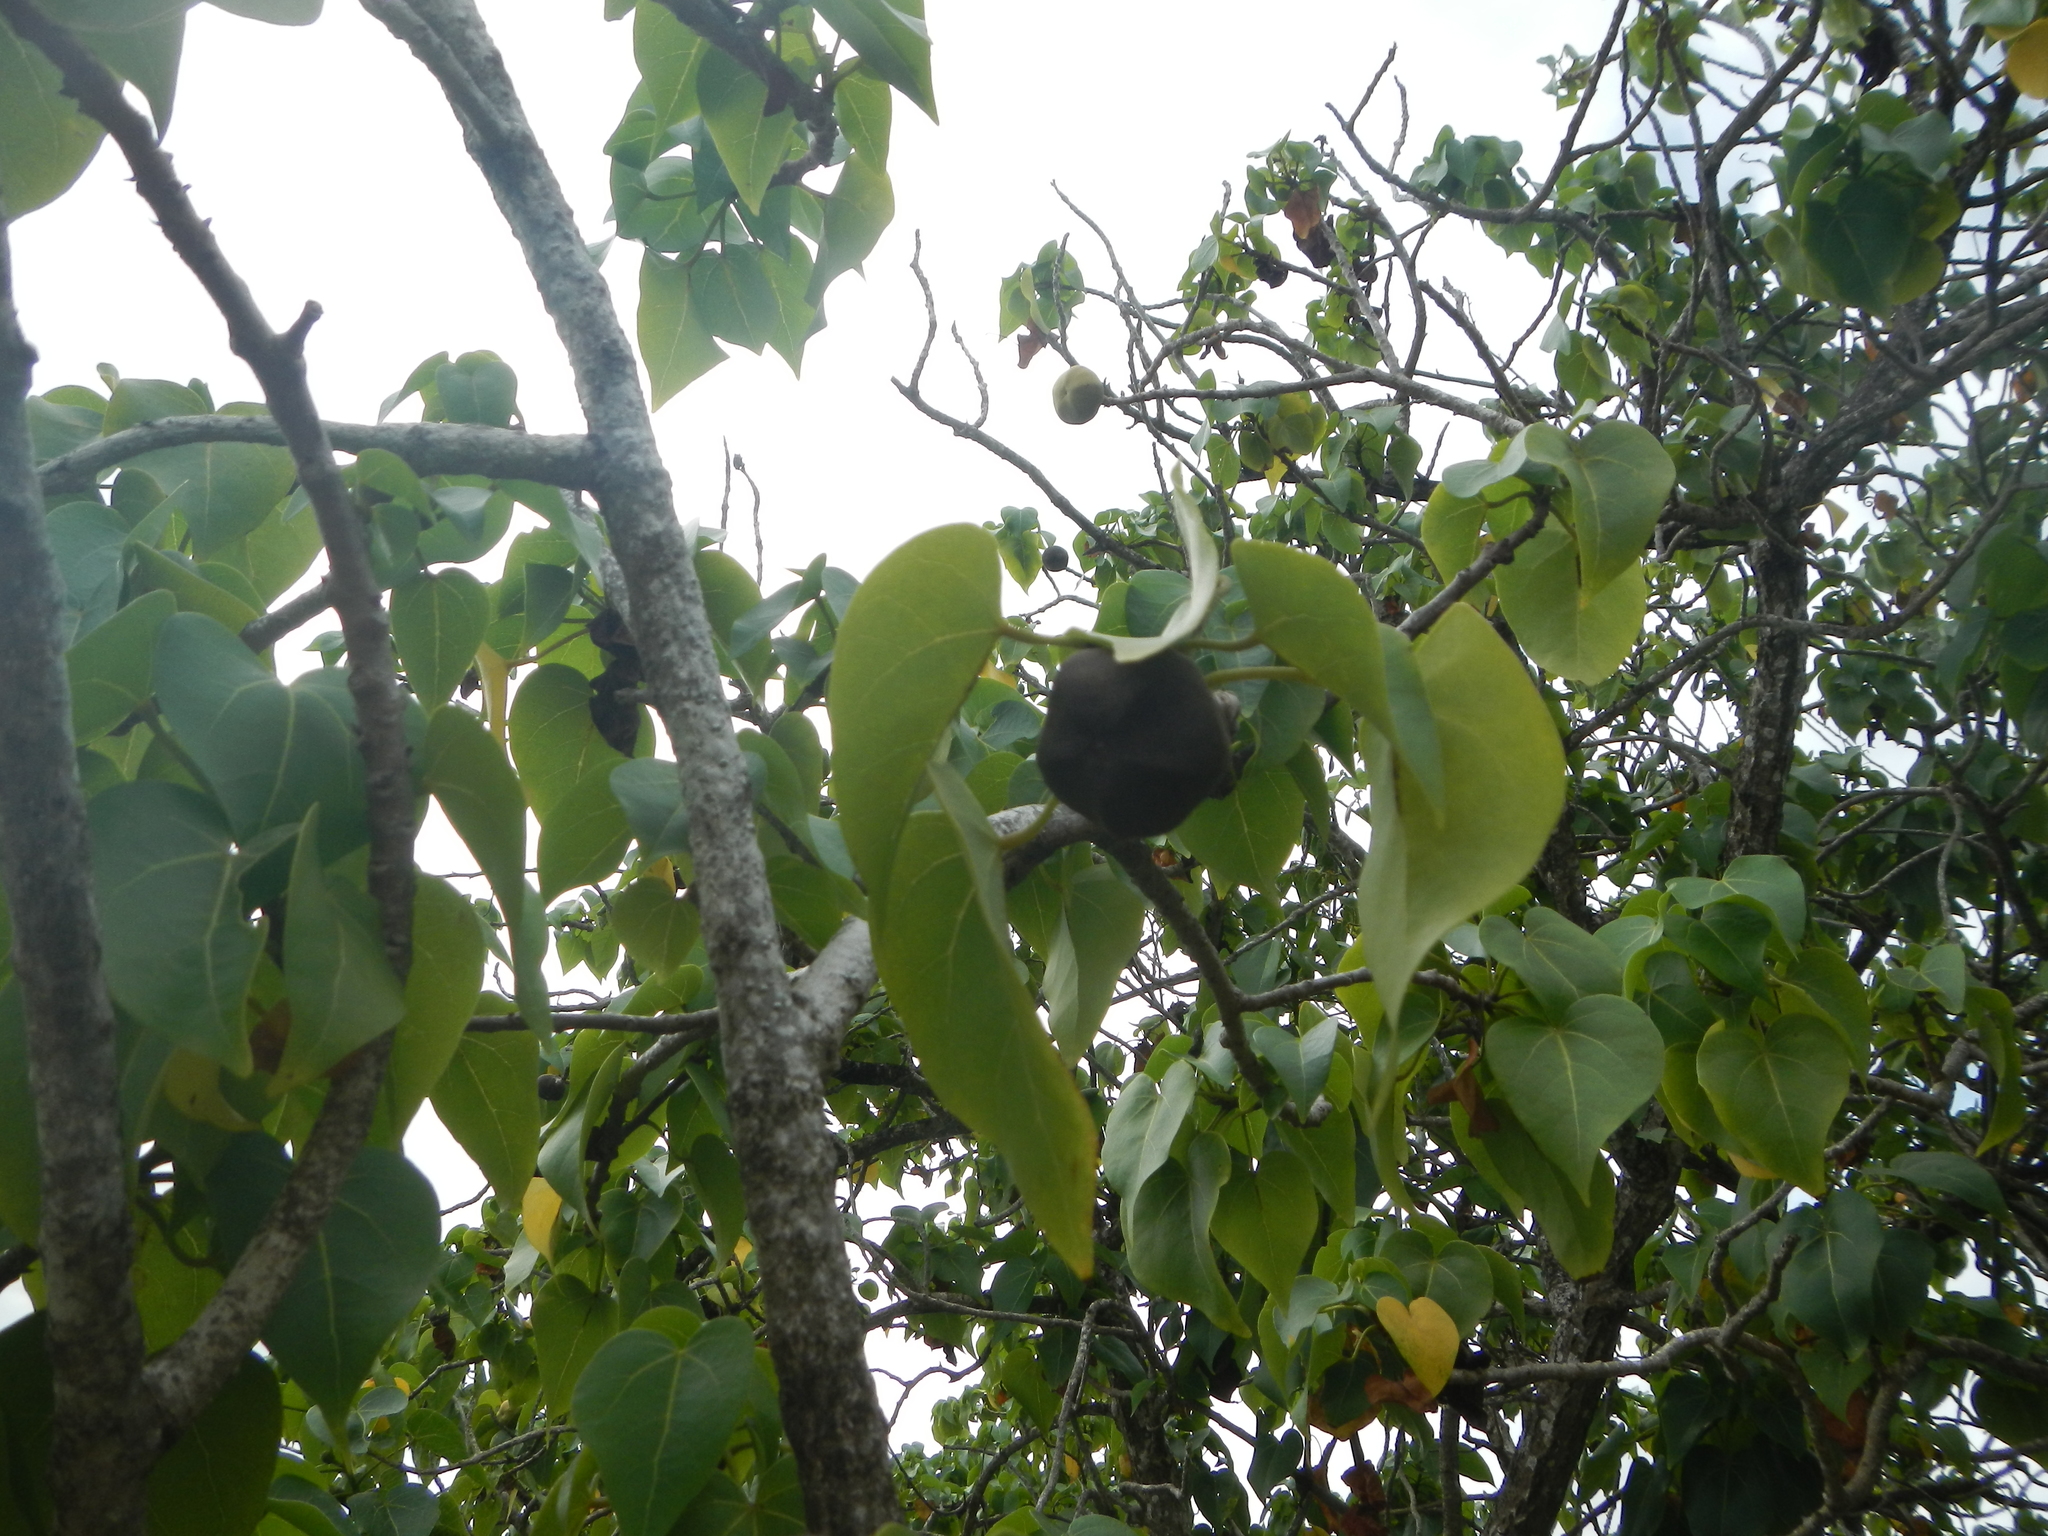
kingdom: Plantae
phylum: Tracheophyta
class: Magnoliopsida
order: Malvales
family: Malvaceae
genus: Thespesia
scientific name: Thespesia populnea
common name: Seaside mahoe
